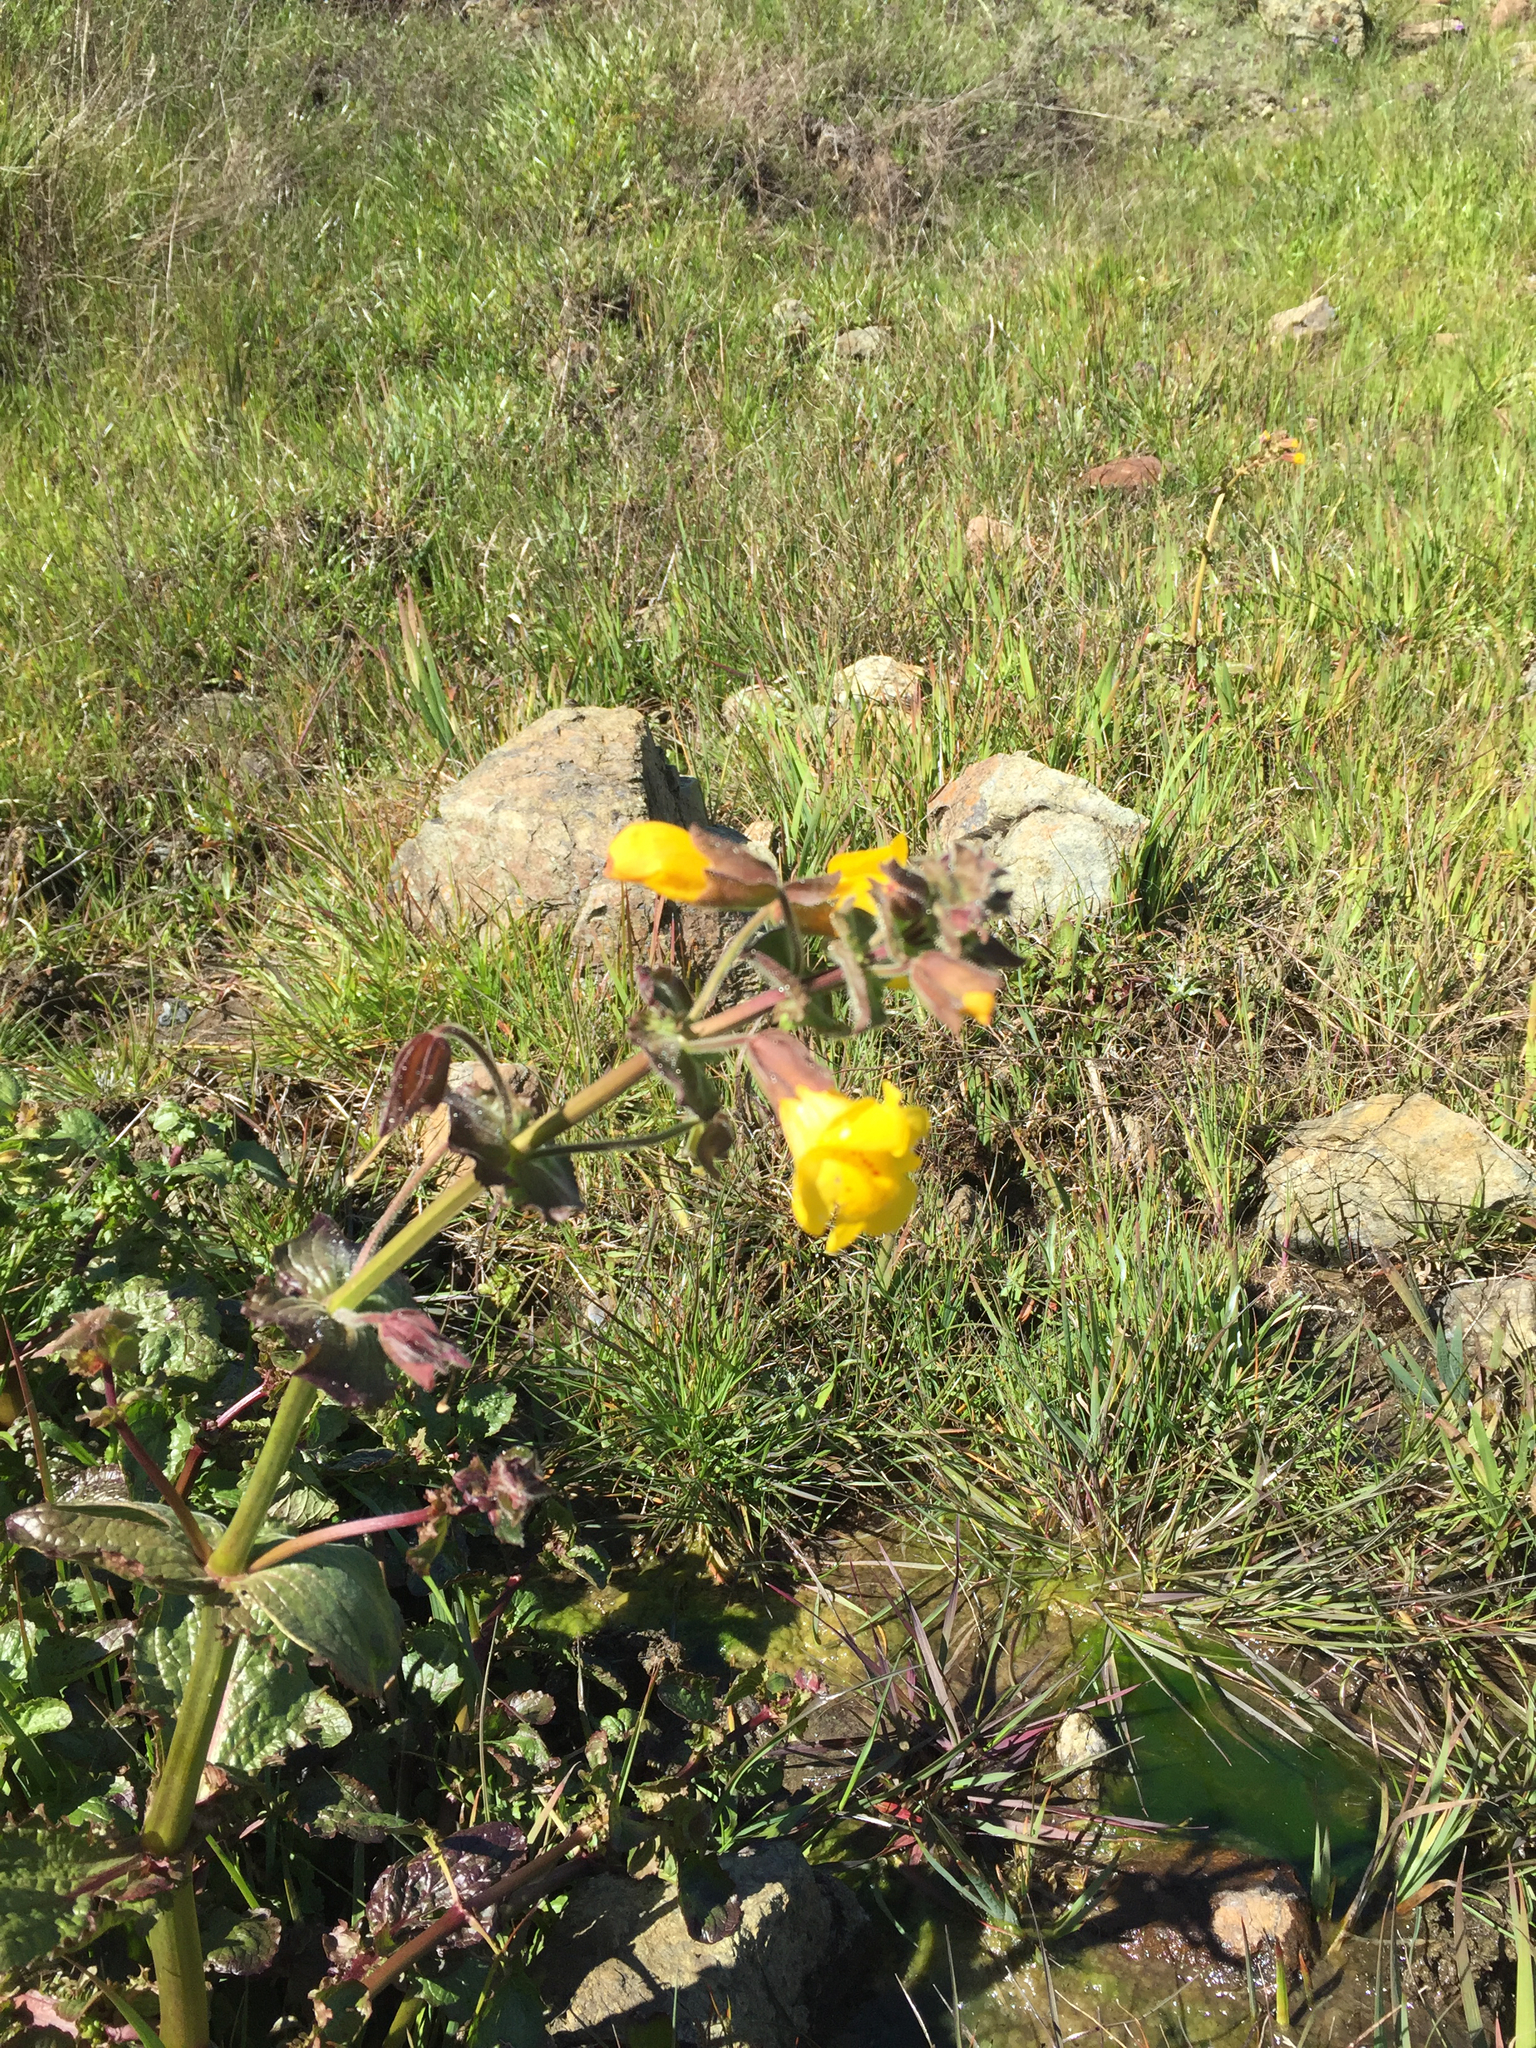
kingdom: Plantae
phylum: Tracheophyta
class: Magnoliopsida
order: Lamiales
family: Phrymaceae
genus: Erythranthe
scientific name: Erythranthe guttata
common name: Monkeyflower
